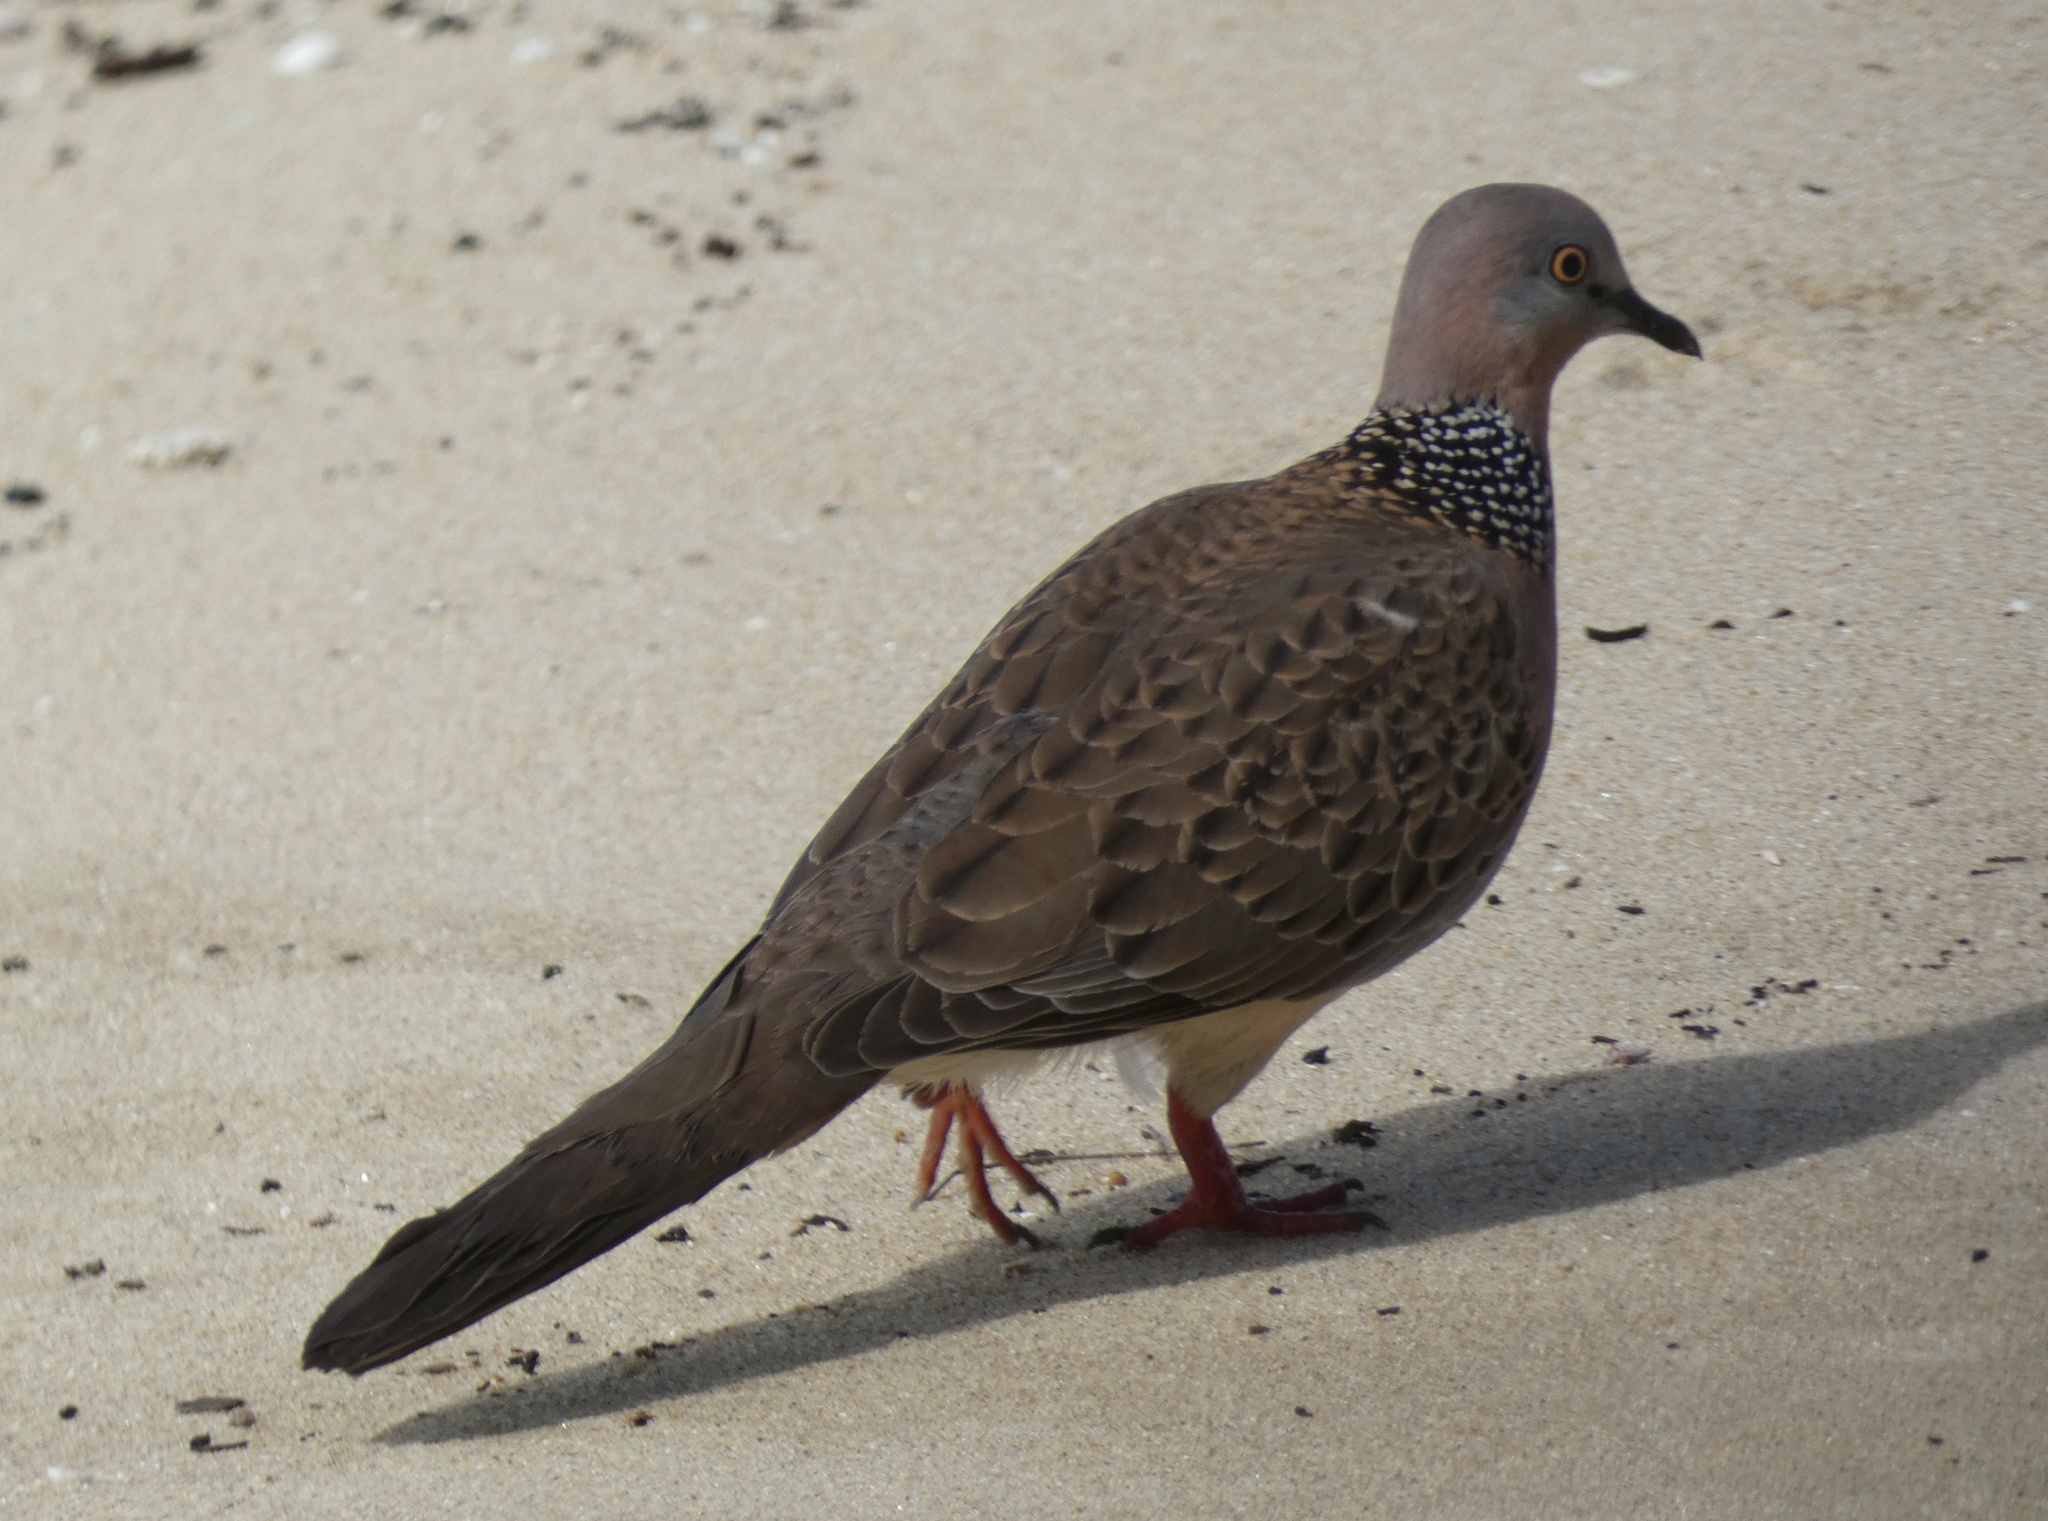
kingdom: Animalia
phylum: Chordata
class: Aves
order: Columbiformes
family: Columbidae
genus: Spilopelia
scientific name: Spilopelia chinensis
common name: Spotted dove
